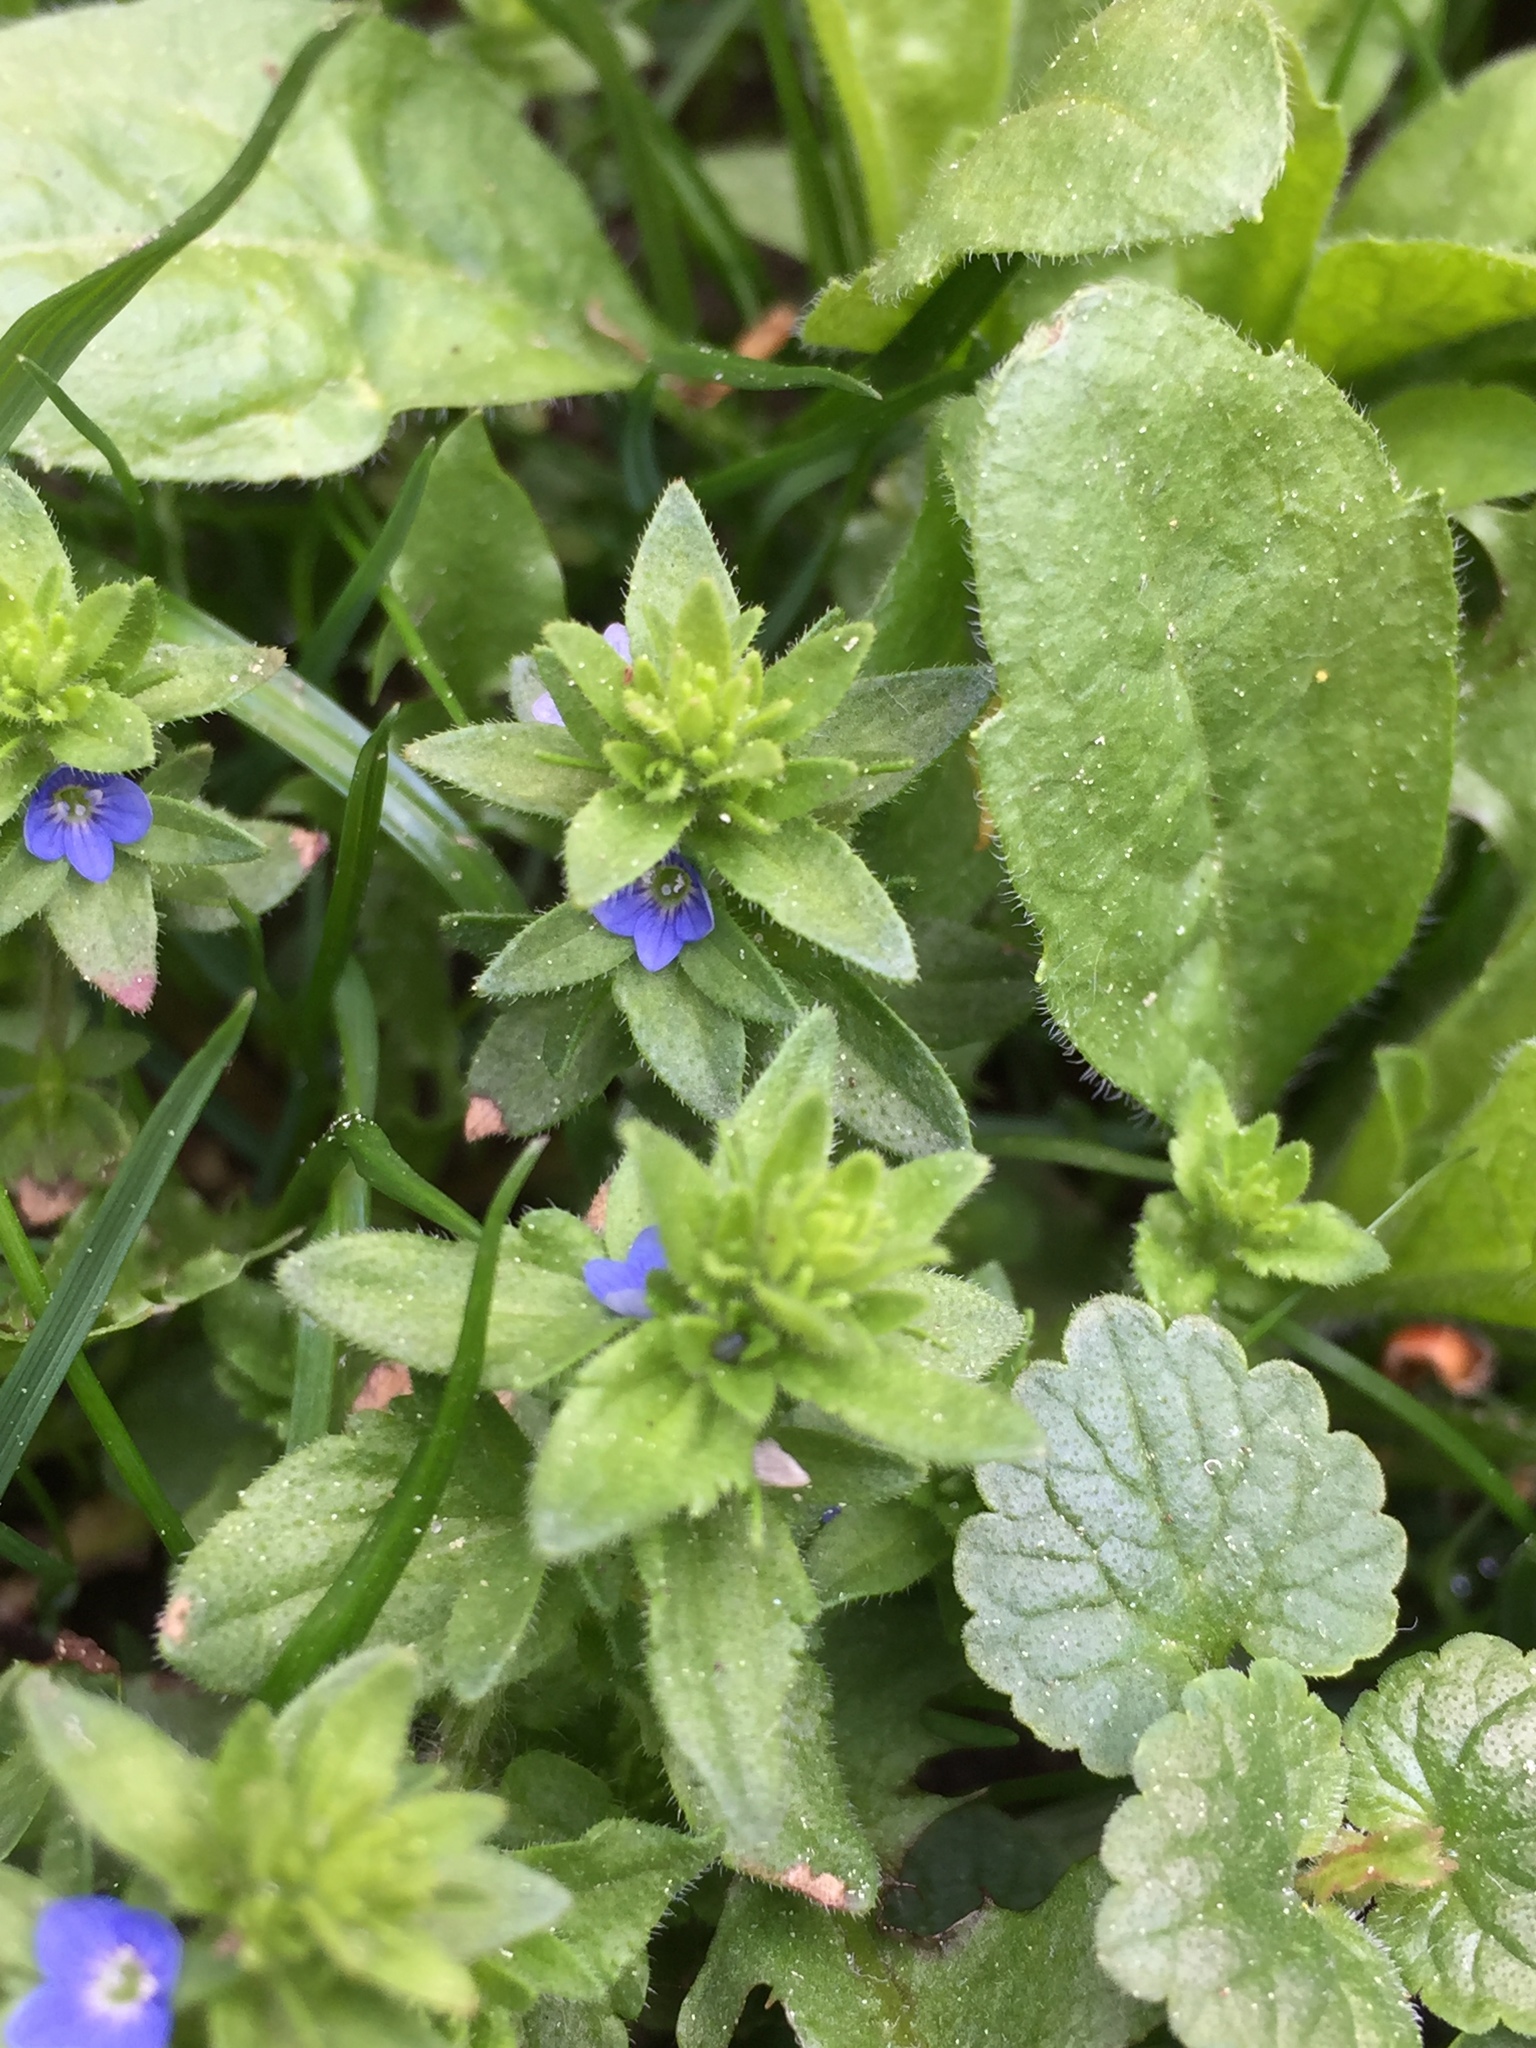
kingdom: Plantae
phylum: Tracheophyta
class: Magnoliopsida
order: Lamiales
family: Plantaginaceae
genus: Veronica
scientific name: Veronica arvensis
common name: Corn speedwell
